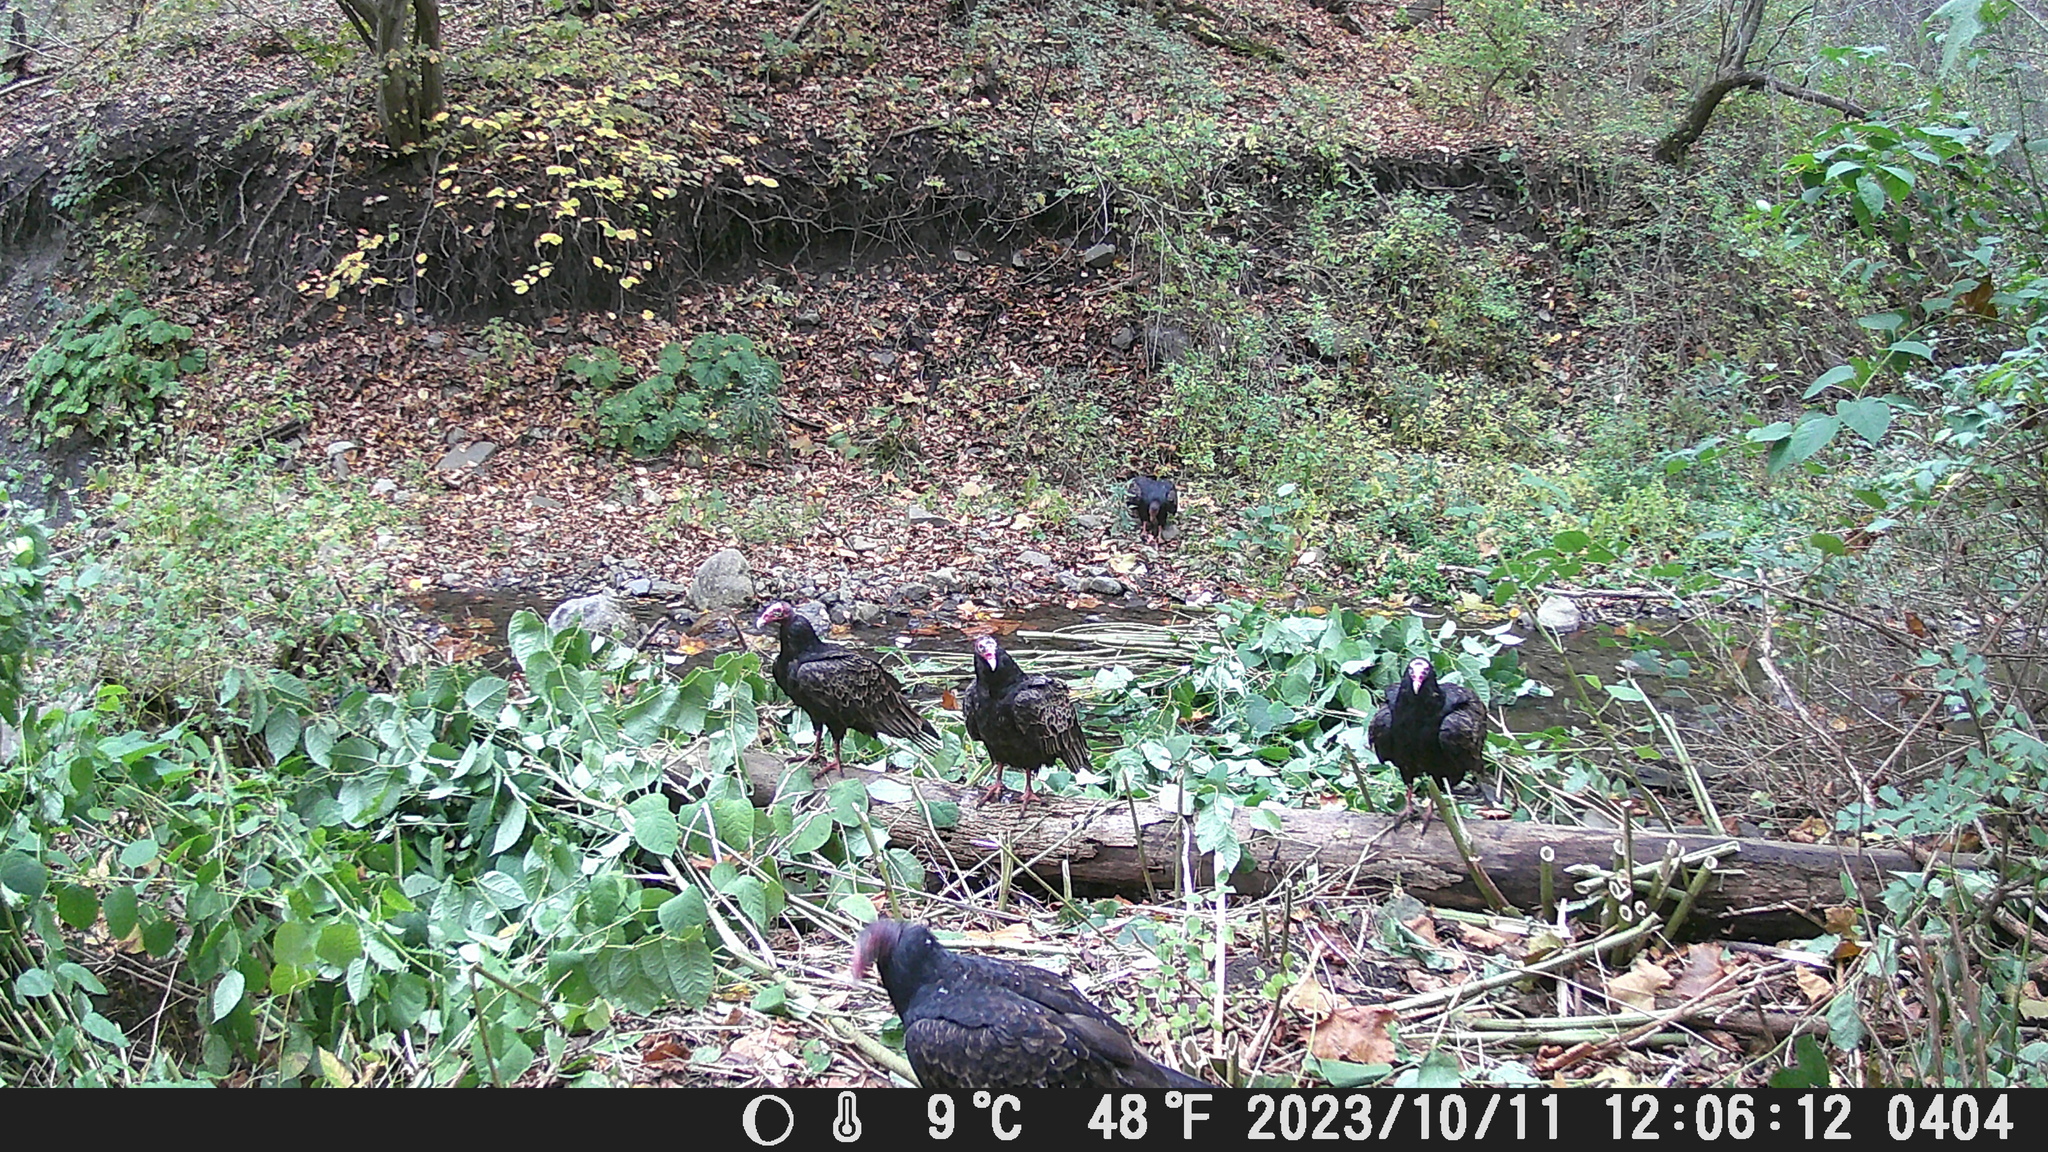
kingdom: Animalia
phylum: Chordata
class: Aves
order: Accipitriformes
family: Cathartidae
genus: Cathartes
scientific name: Cathartes aura
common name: Turkey vulture
